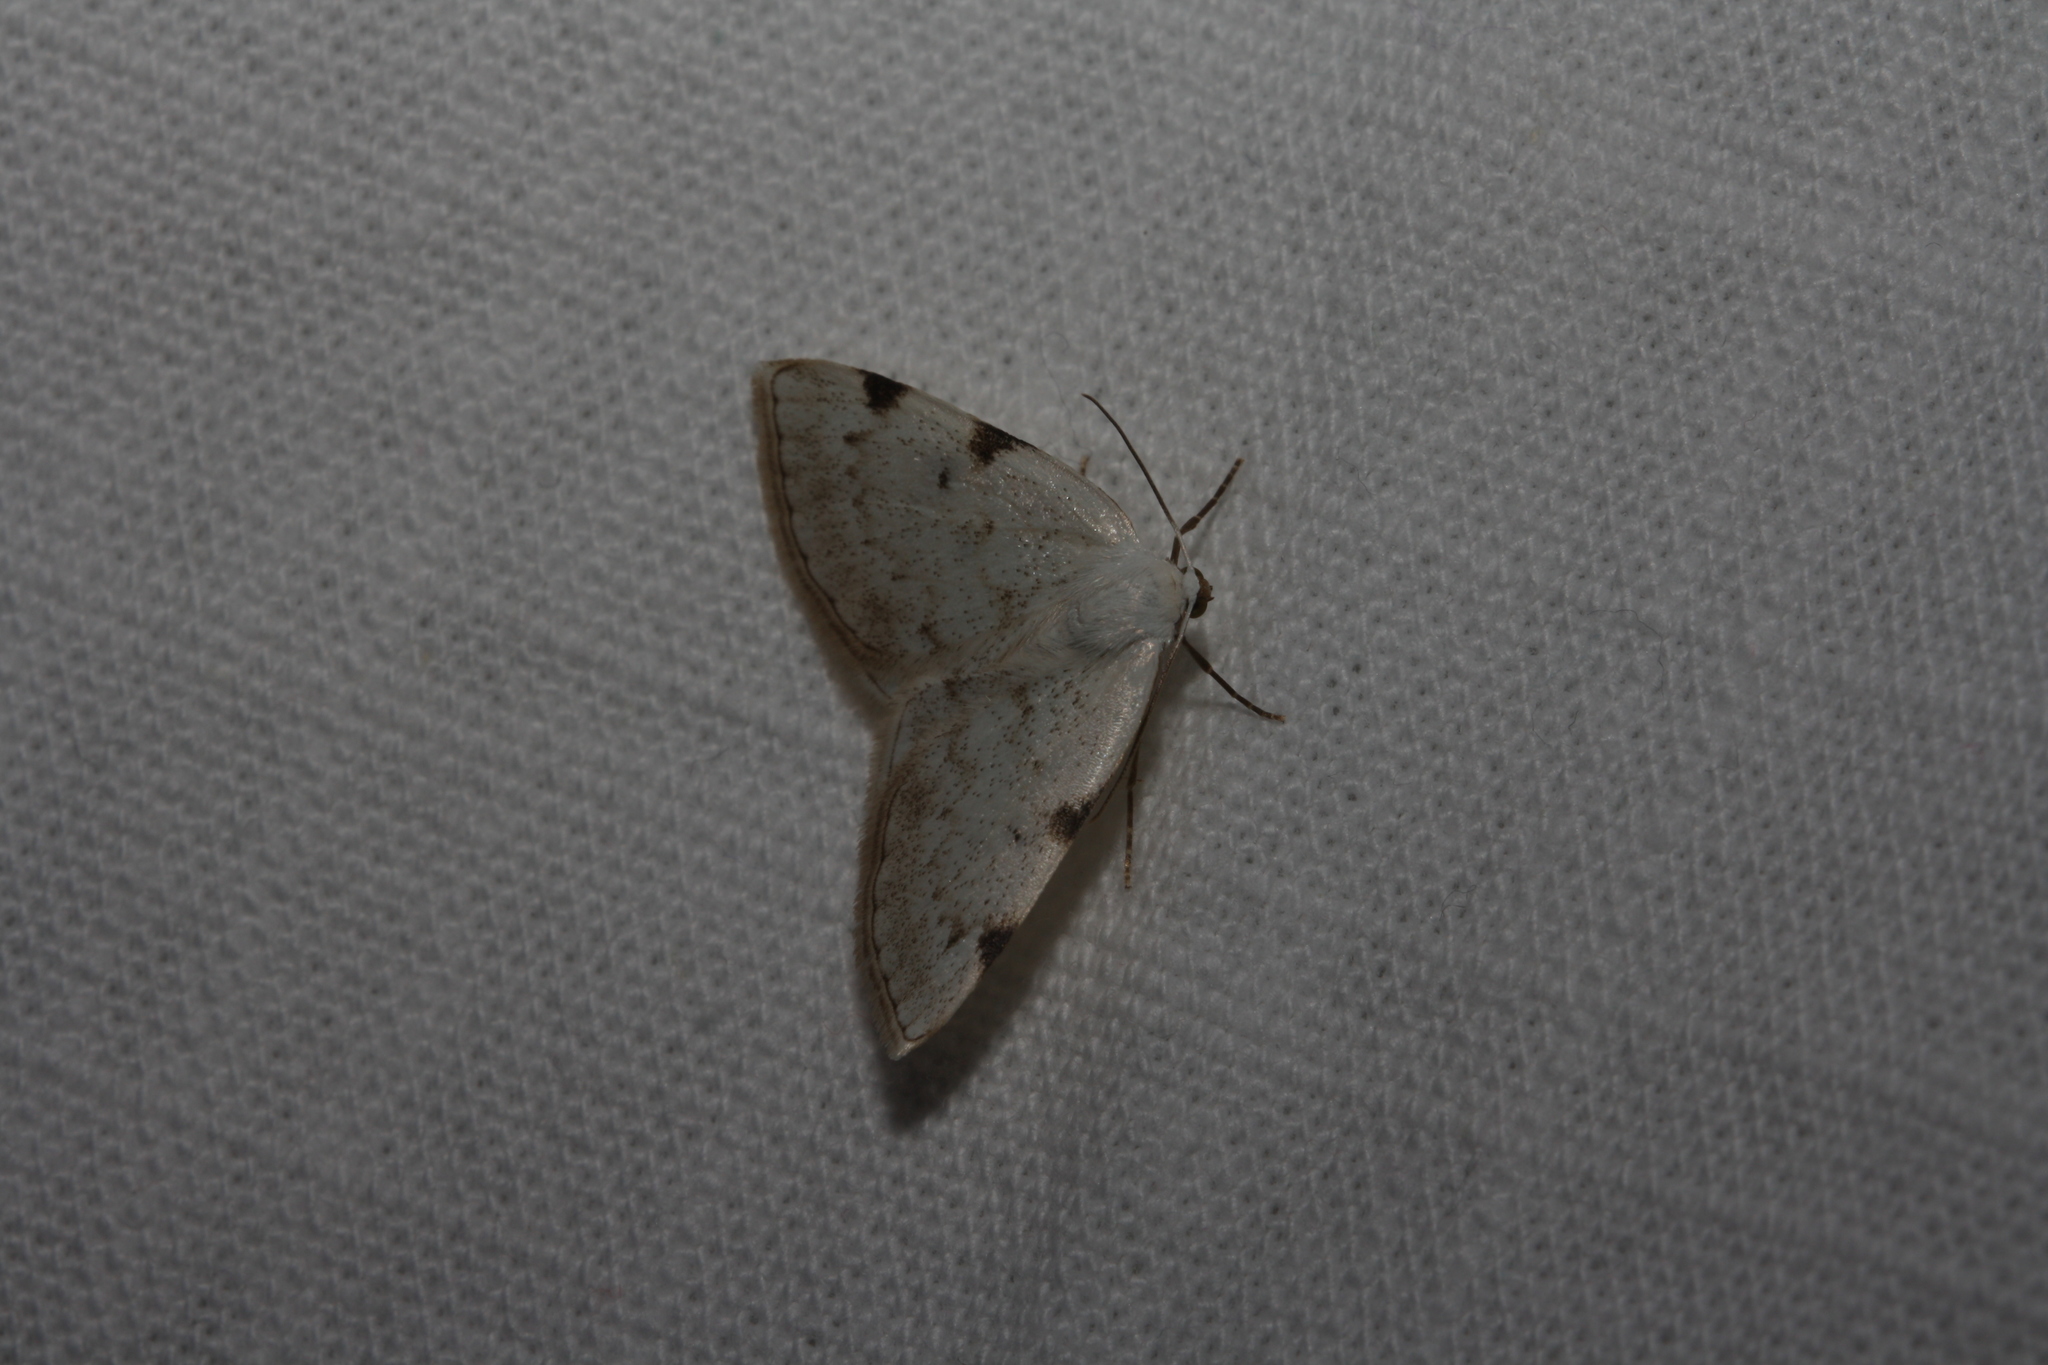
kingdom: Animalia
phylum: Arthropoda
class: Insecta
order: Lepidoptera
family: Geometridae
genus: Lomographa
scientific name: Lomographa bimaculata
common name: White-pinion spotted
